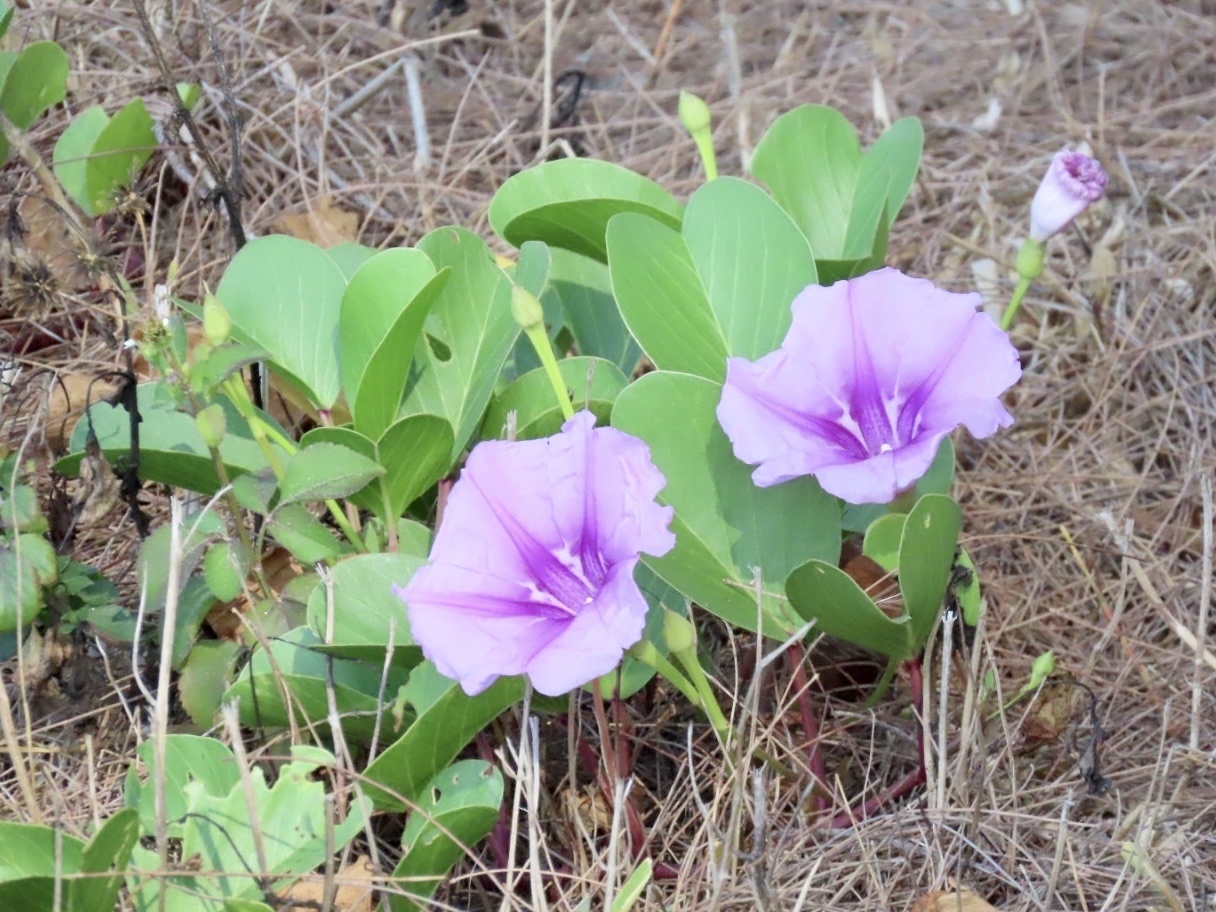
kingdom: Plantae
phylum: Tracheophyta
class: Magnoliopsida
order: Solanales
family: Convolvulaceae
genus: Ipomoea
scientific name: Ipomoea pes-caprae
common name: Beach morning glory
